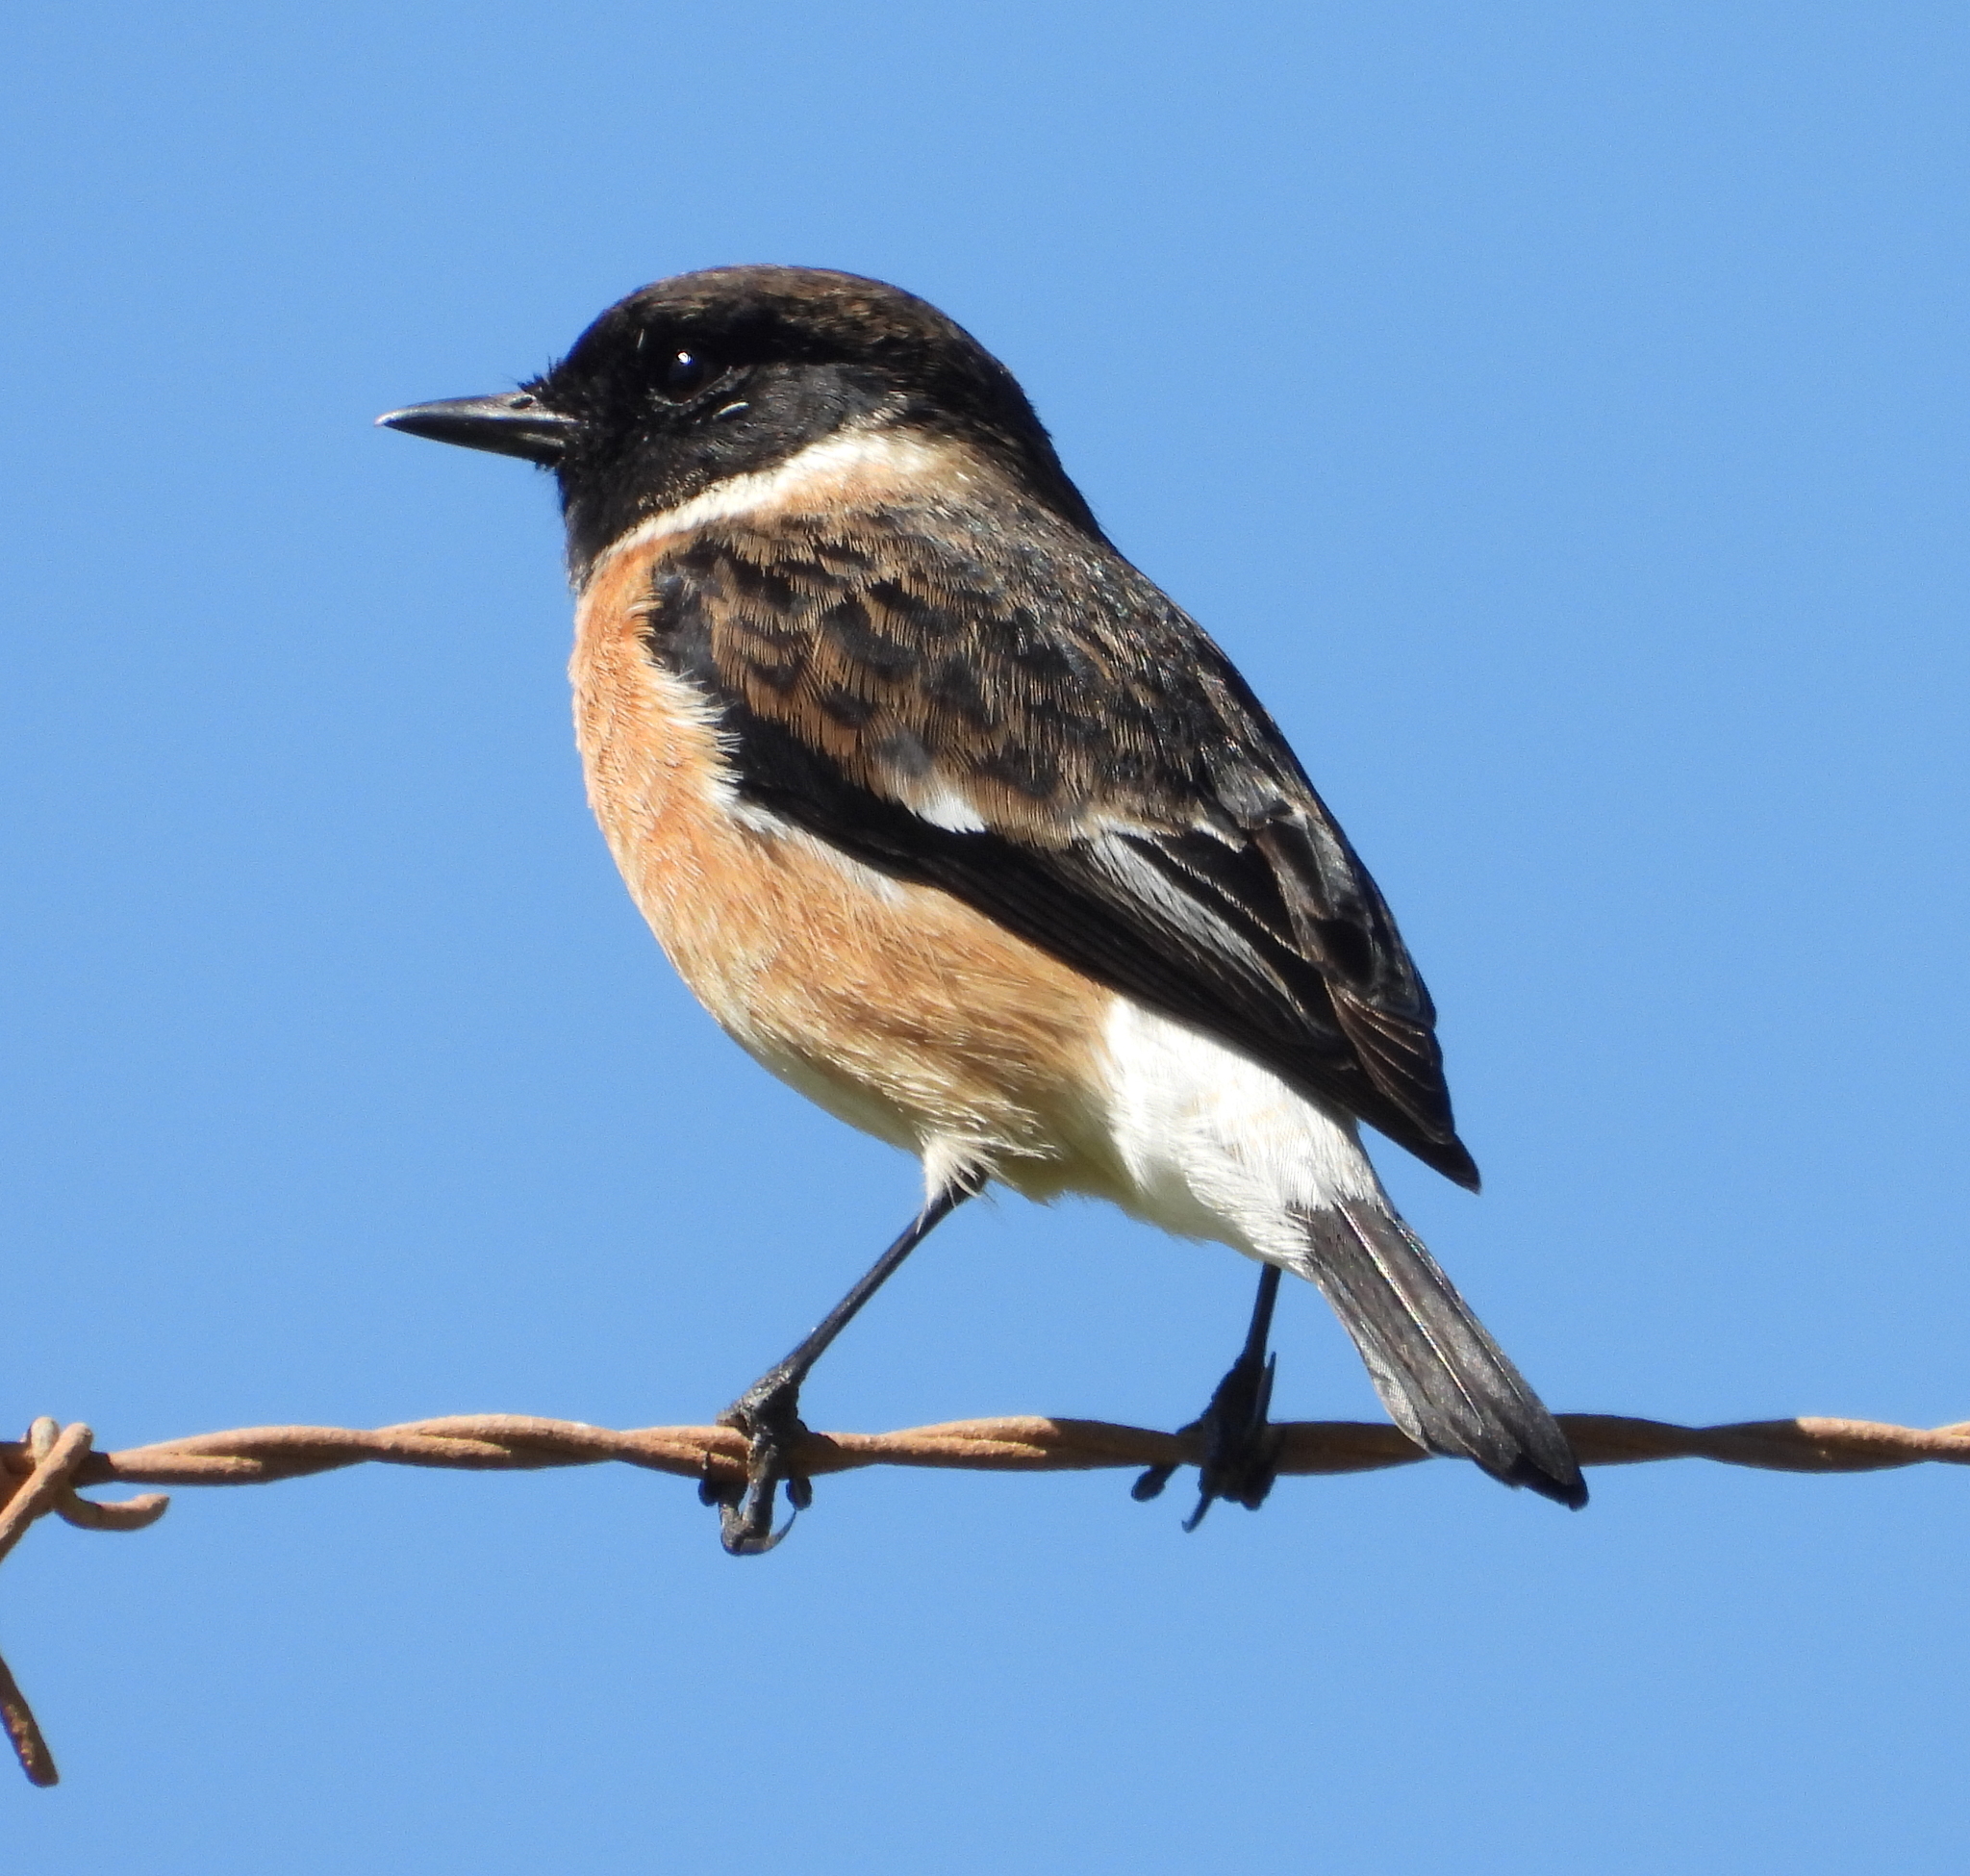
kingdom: Animalia
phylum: Chordata
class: Aves
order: Passeriformes
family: Muscicapidae
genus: Saxicola
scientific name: Saxicola torquatus
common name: African stonechat
